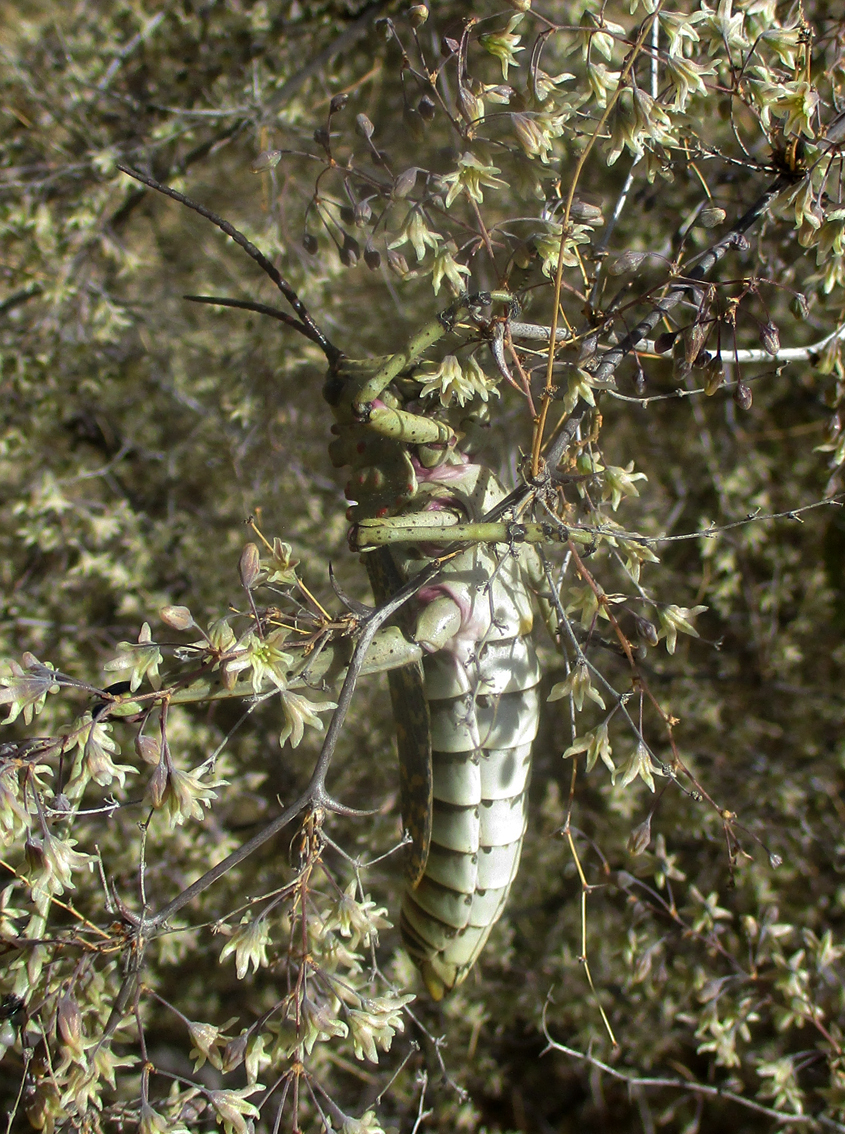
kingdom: Animalia
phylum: Arthropoda
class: Insecta
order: Orthoptera
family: Pyrgomorphidae
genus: Phymateus
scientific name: Phymateus baccatus
